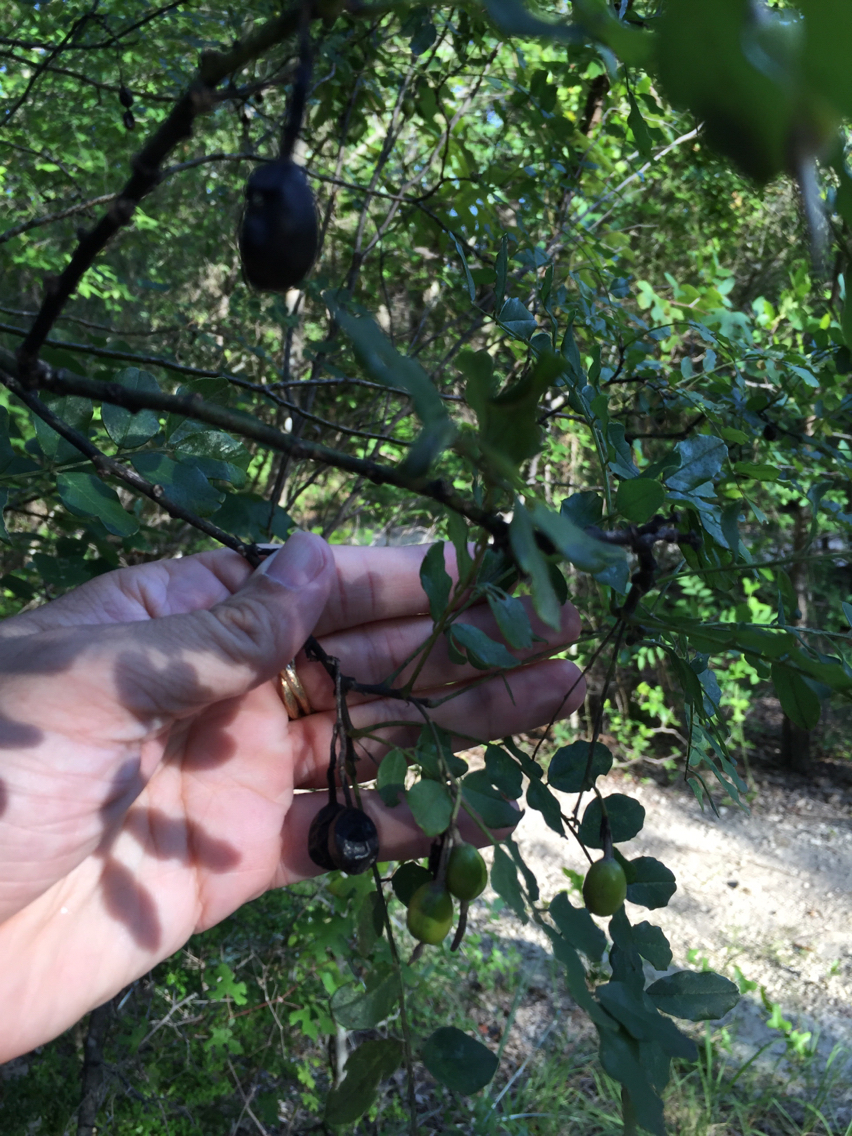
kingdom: Plantae
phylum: Tracheophyta
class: Magnoliopsida
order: Fabales
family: Fabaceae
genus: Styphnolobium
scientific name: Styphnolobium affine
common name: Texas sophora
